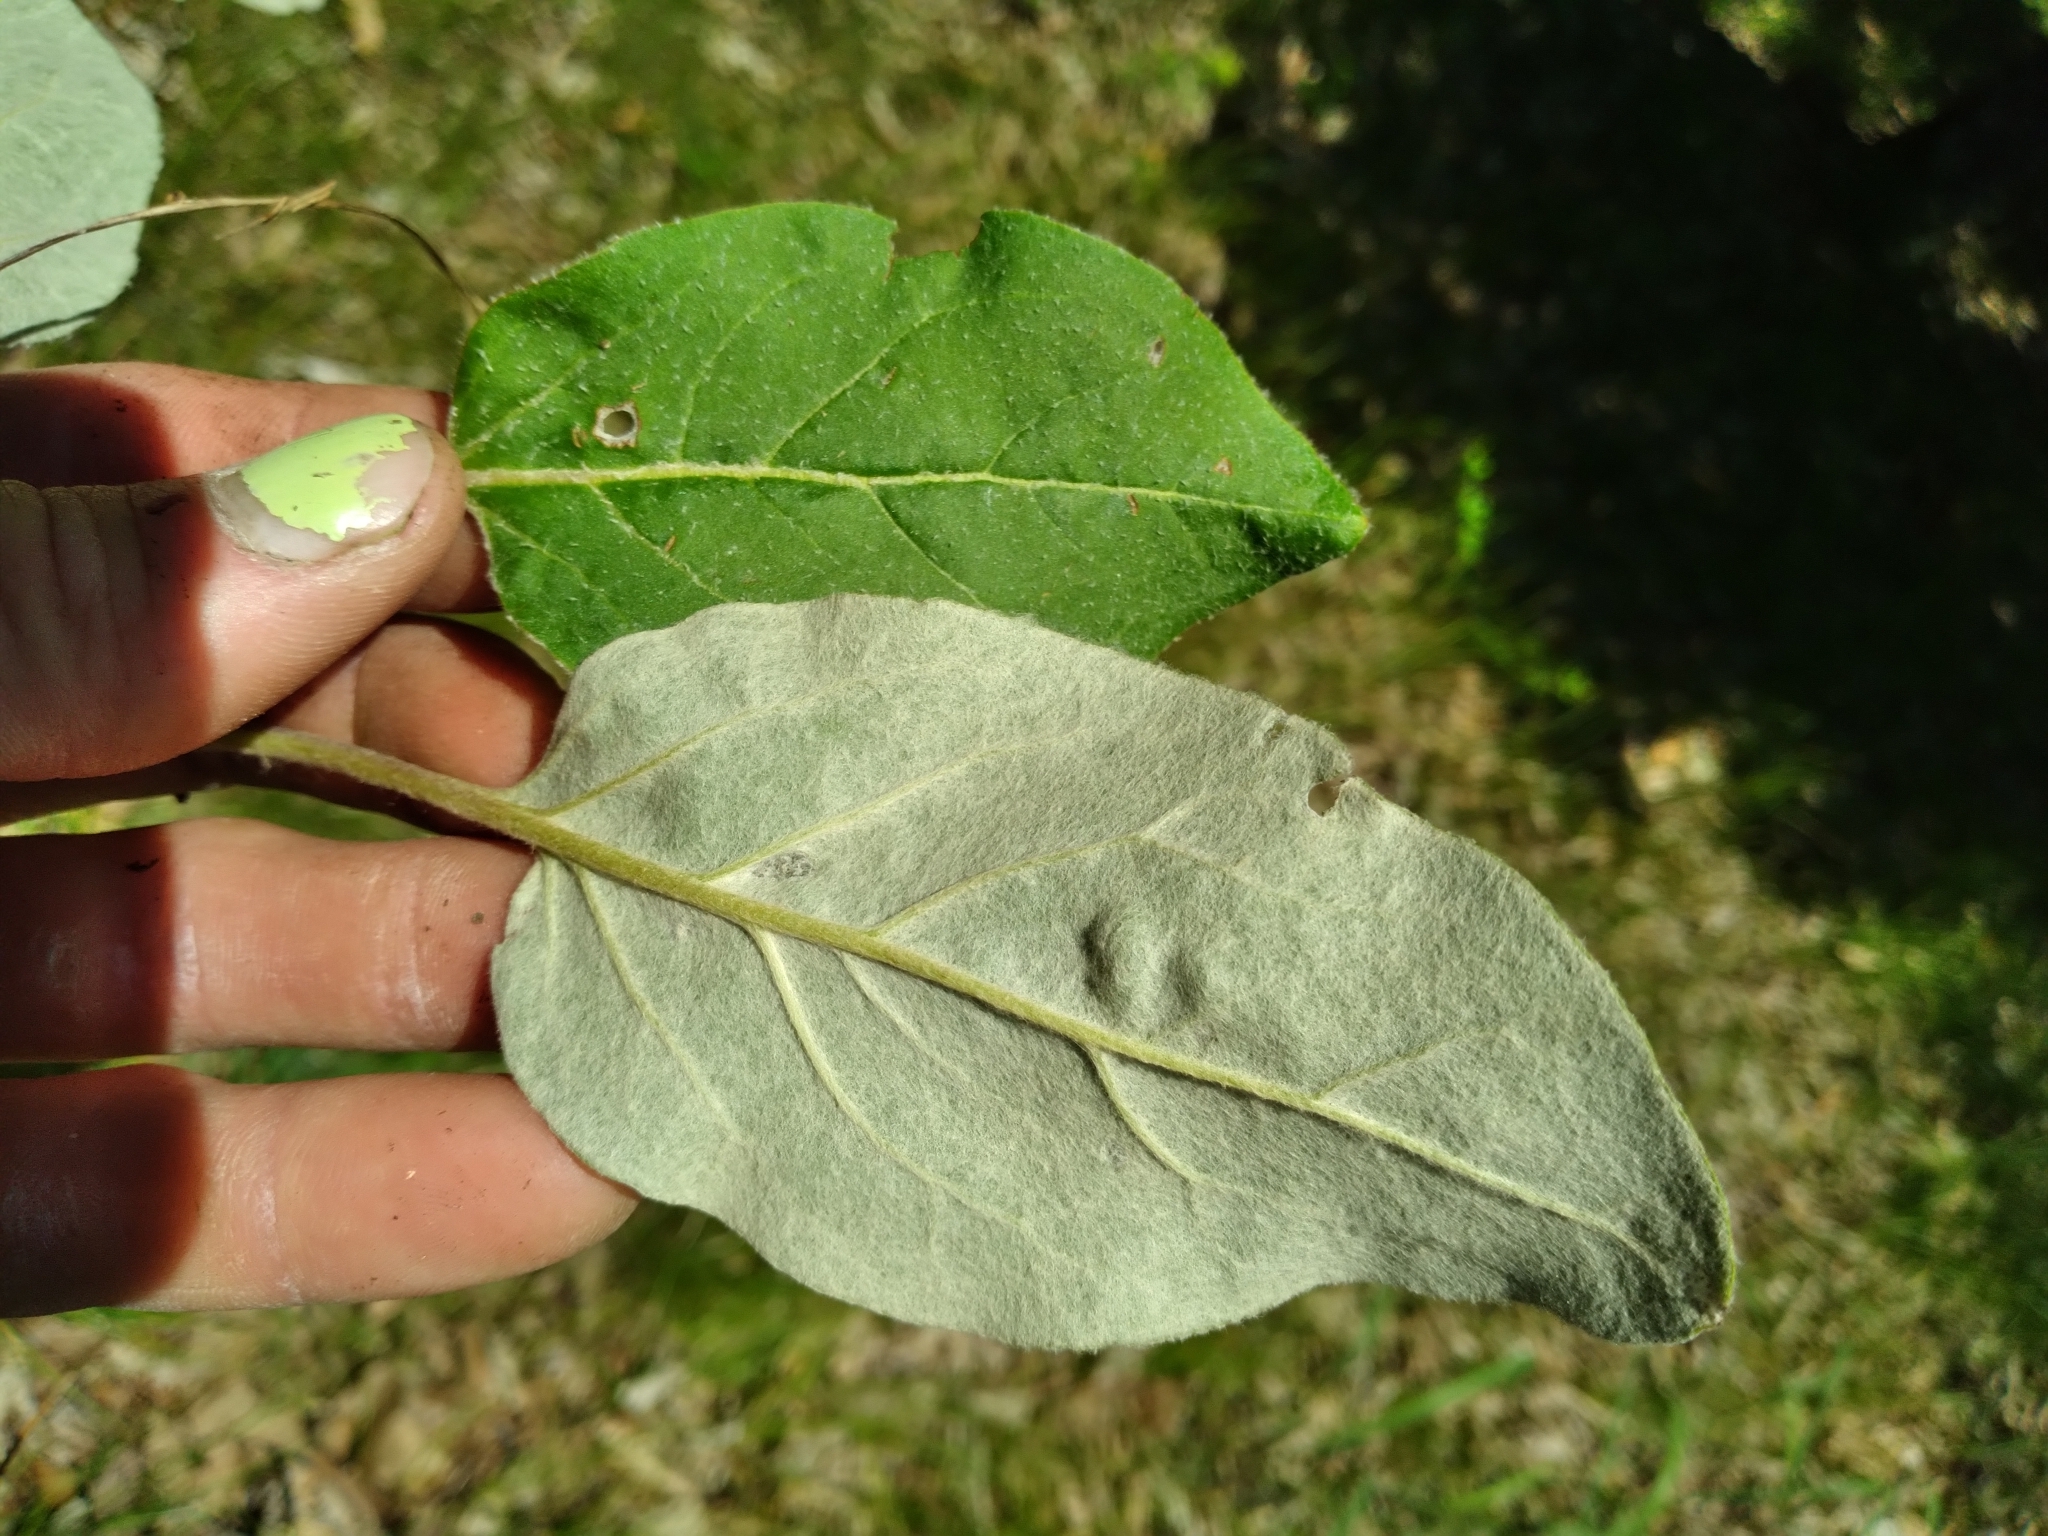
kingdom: Plantae
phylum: Tracheophyta
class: Magnoliopsida
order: Caryophyllales
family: Polygonaceae
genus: Eriogonum
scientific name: Eriogonum allenii
